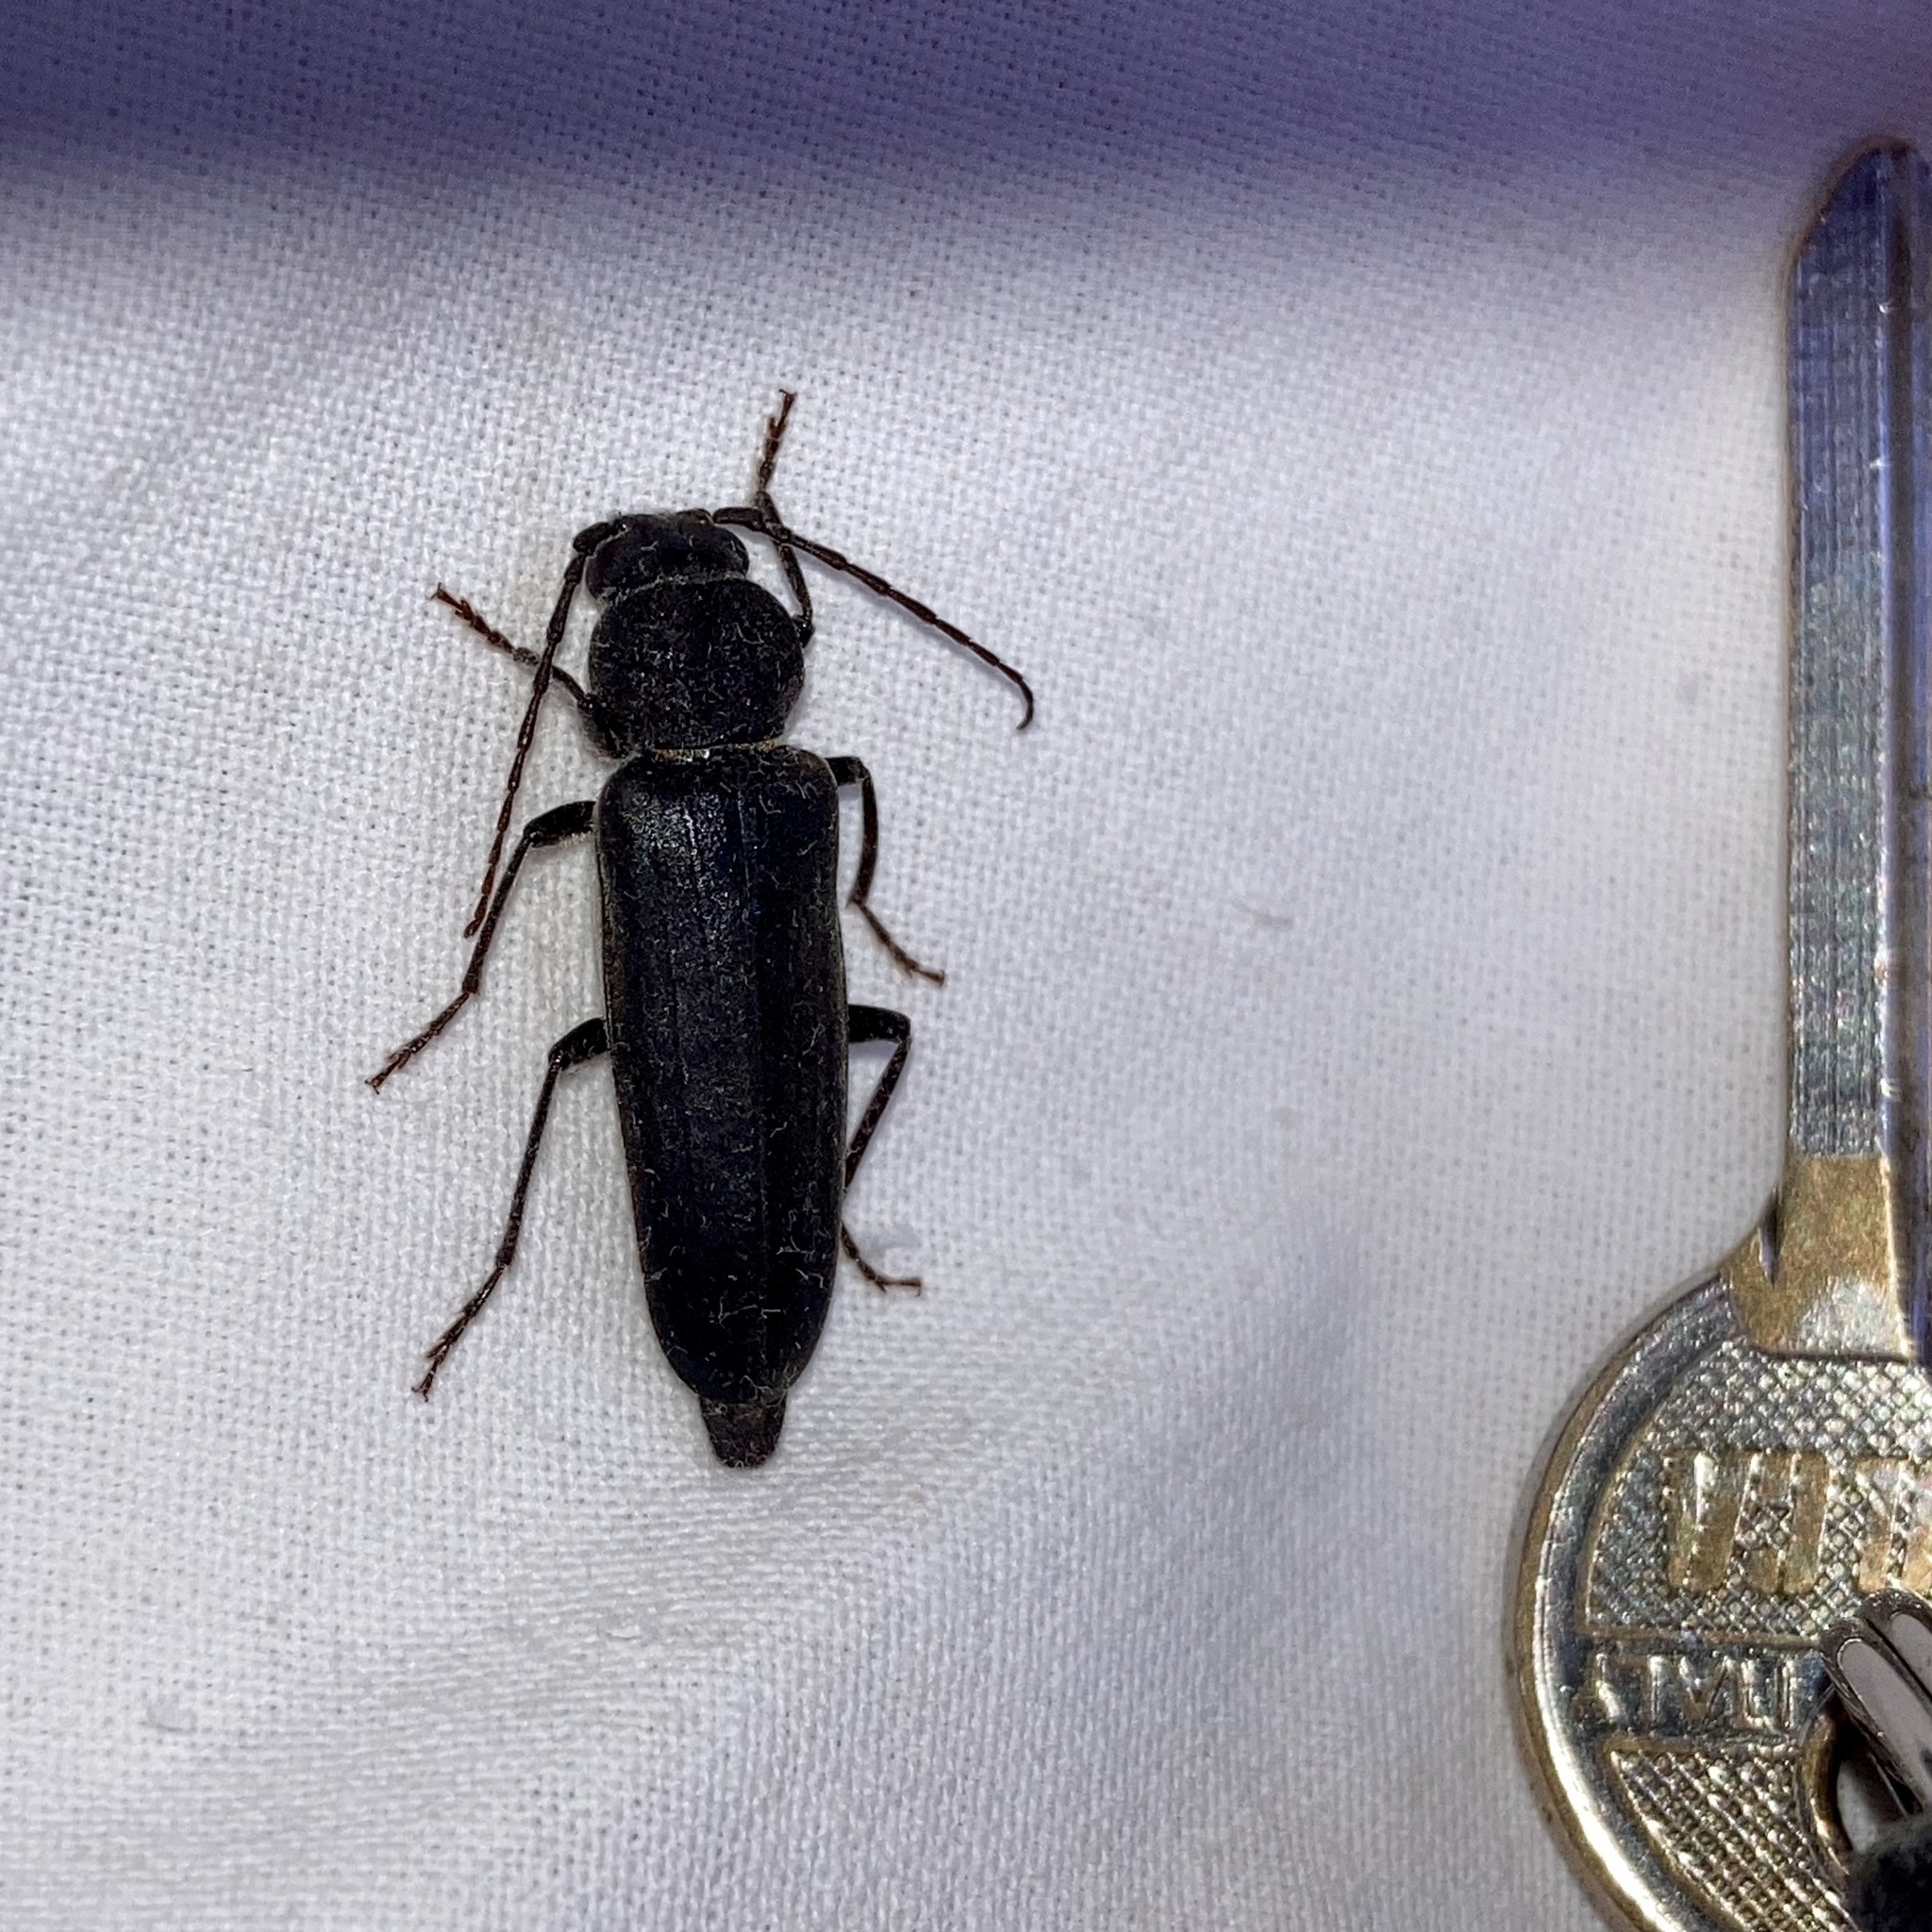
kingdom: Animalia
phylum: Arthropoda
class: Insecta
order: Coleoptera
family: Cerambycidae
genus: Arhopalus
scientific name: Arhopalus ferus
